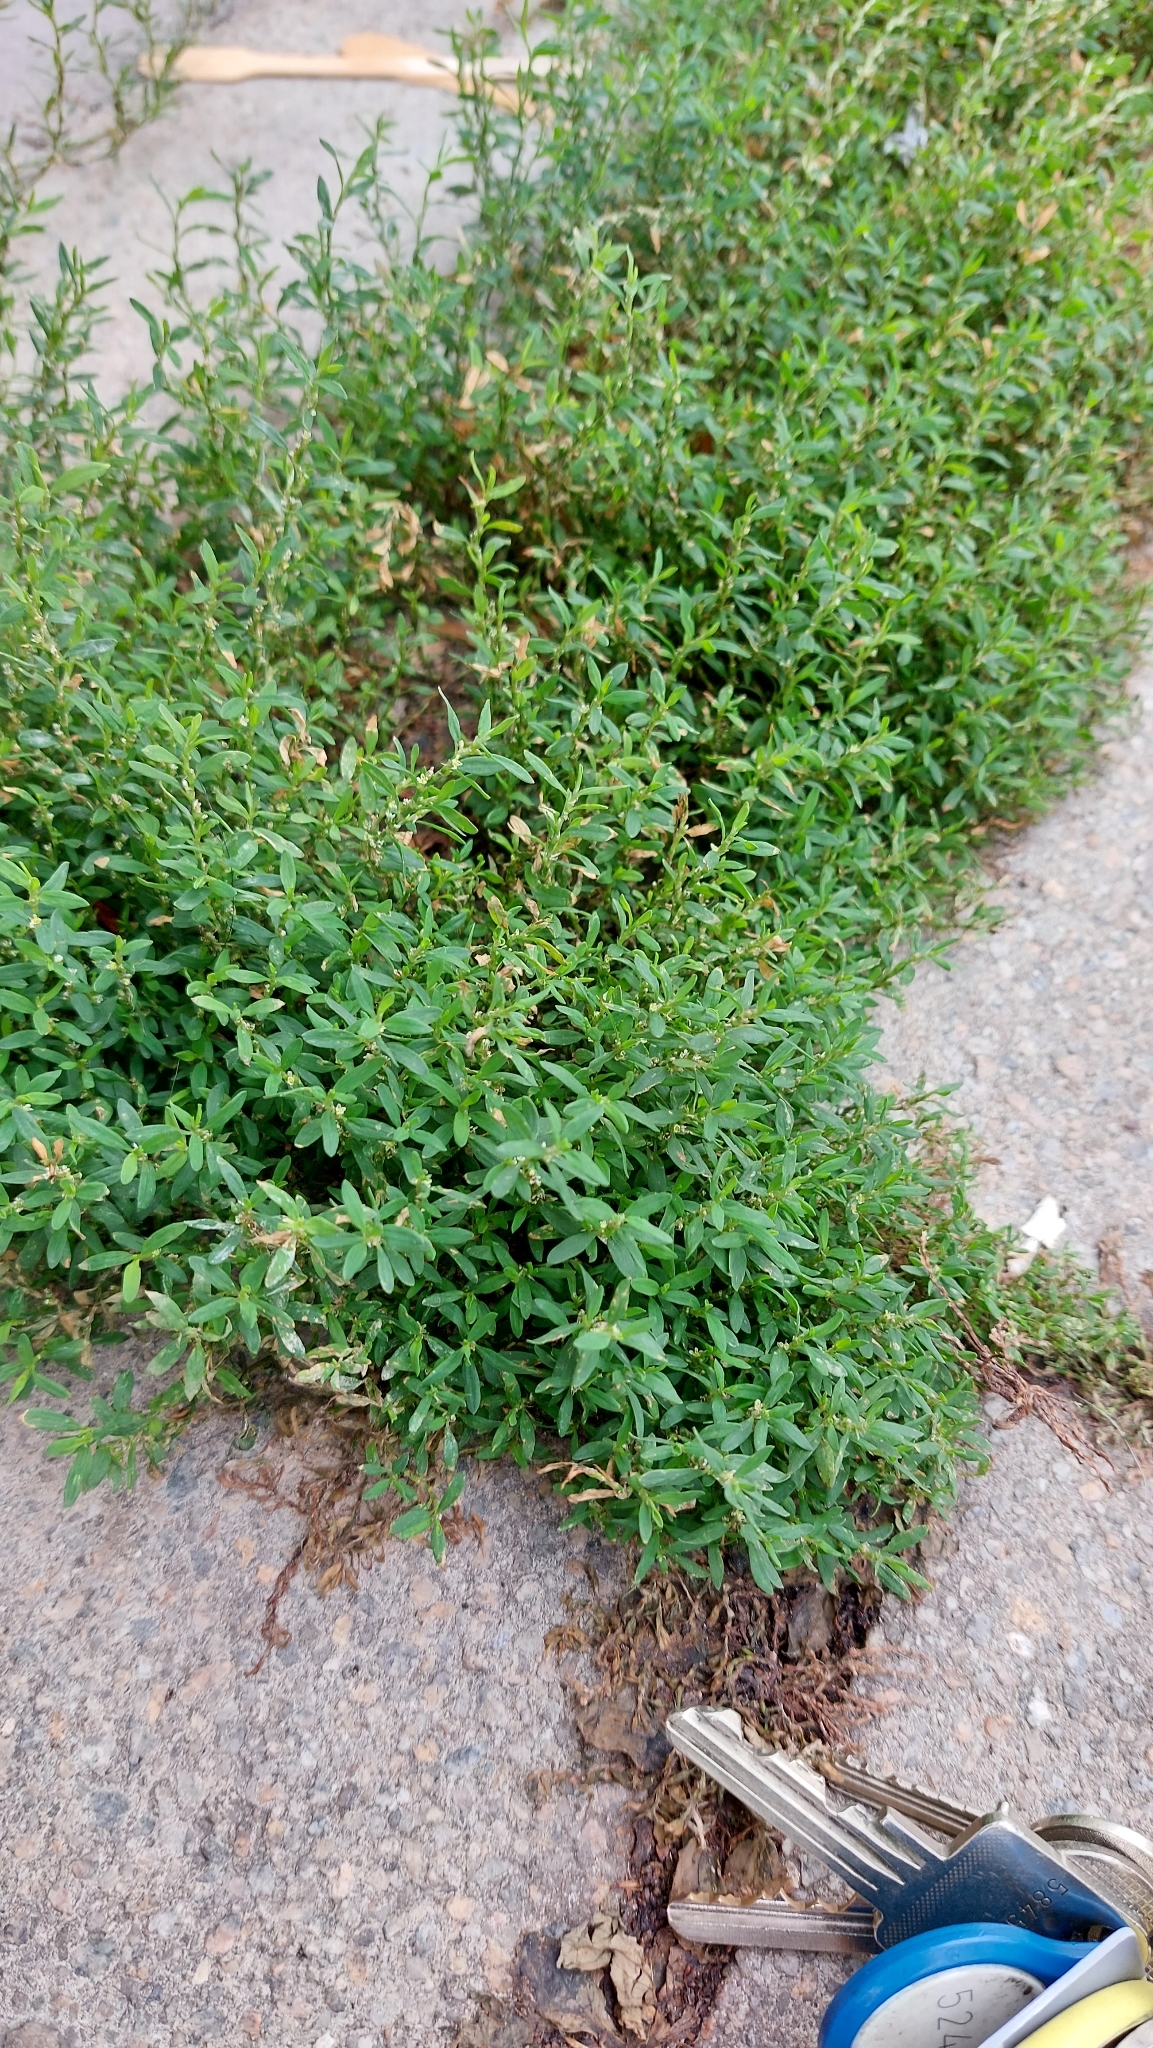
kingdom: Plantae
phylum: Tracheophyta
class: Magnoliopsida
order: Caryophyllales
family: Polygonaceae
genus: Polygonum
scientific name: Polygonum aviculare
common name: Prostrate knotweed
